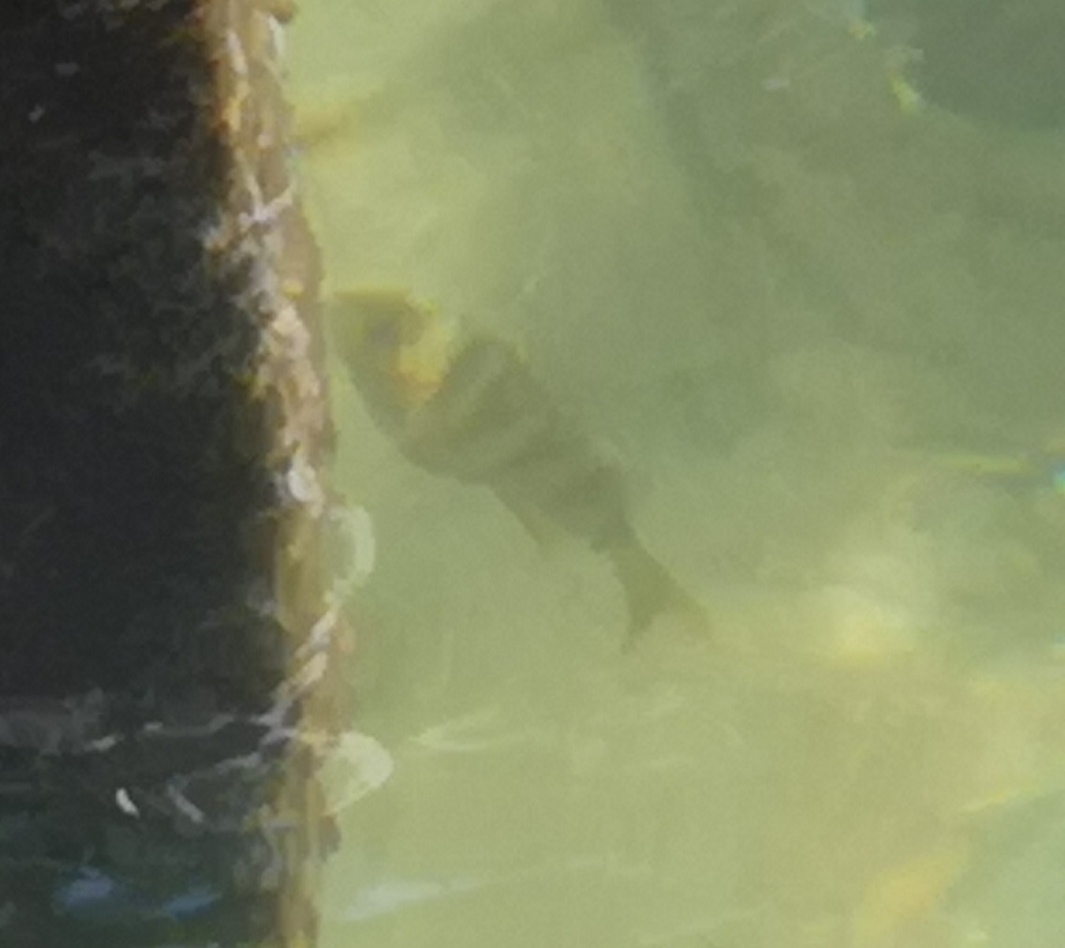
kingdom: Animalia
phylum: Chordata
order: Perciformes
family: Percidae
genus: Perca
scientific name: Perca fluviatilis
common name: Perch
